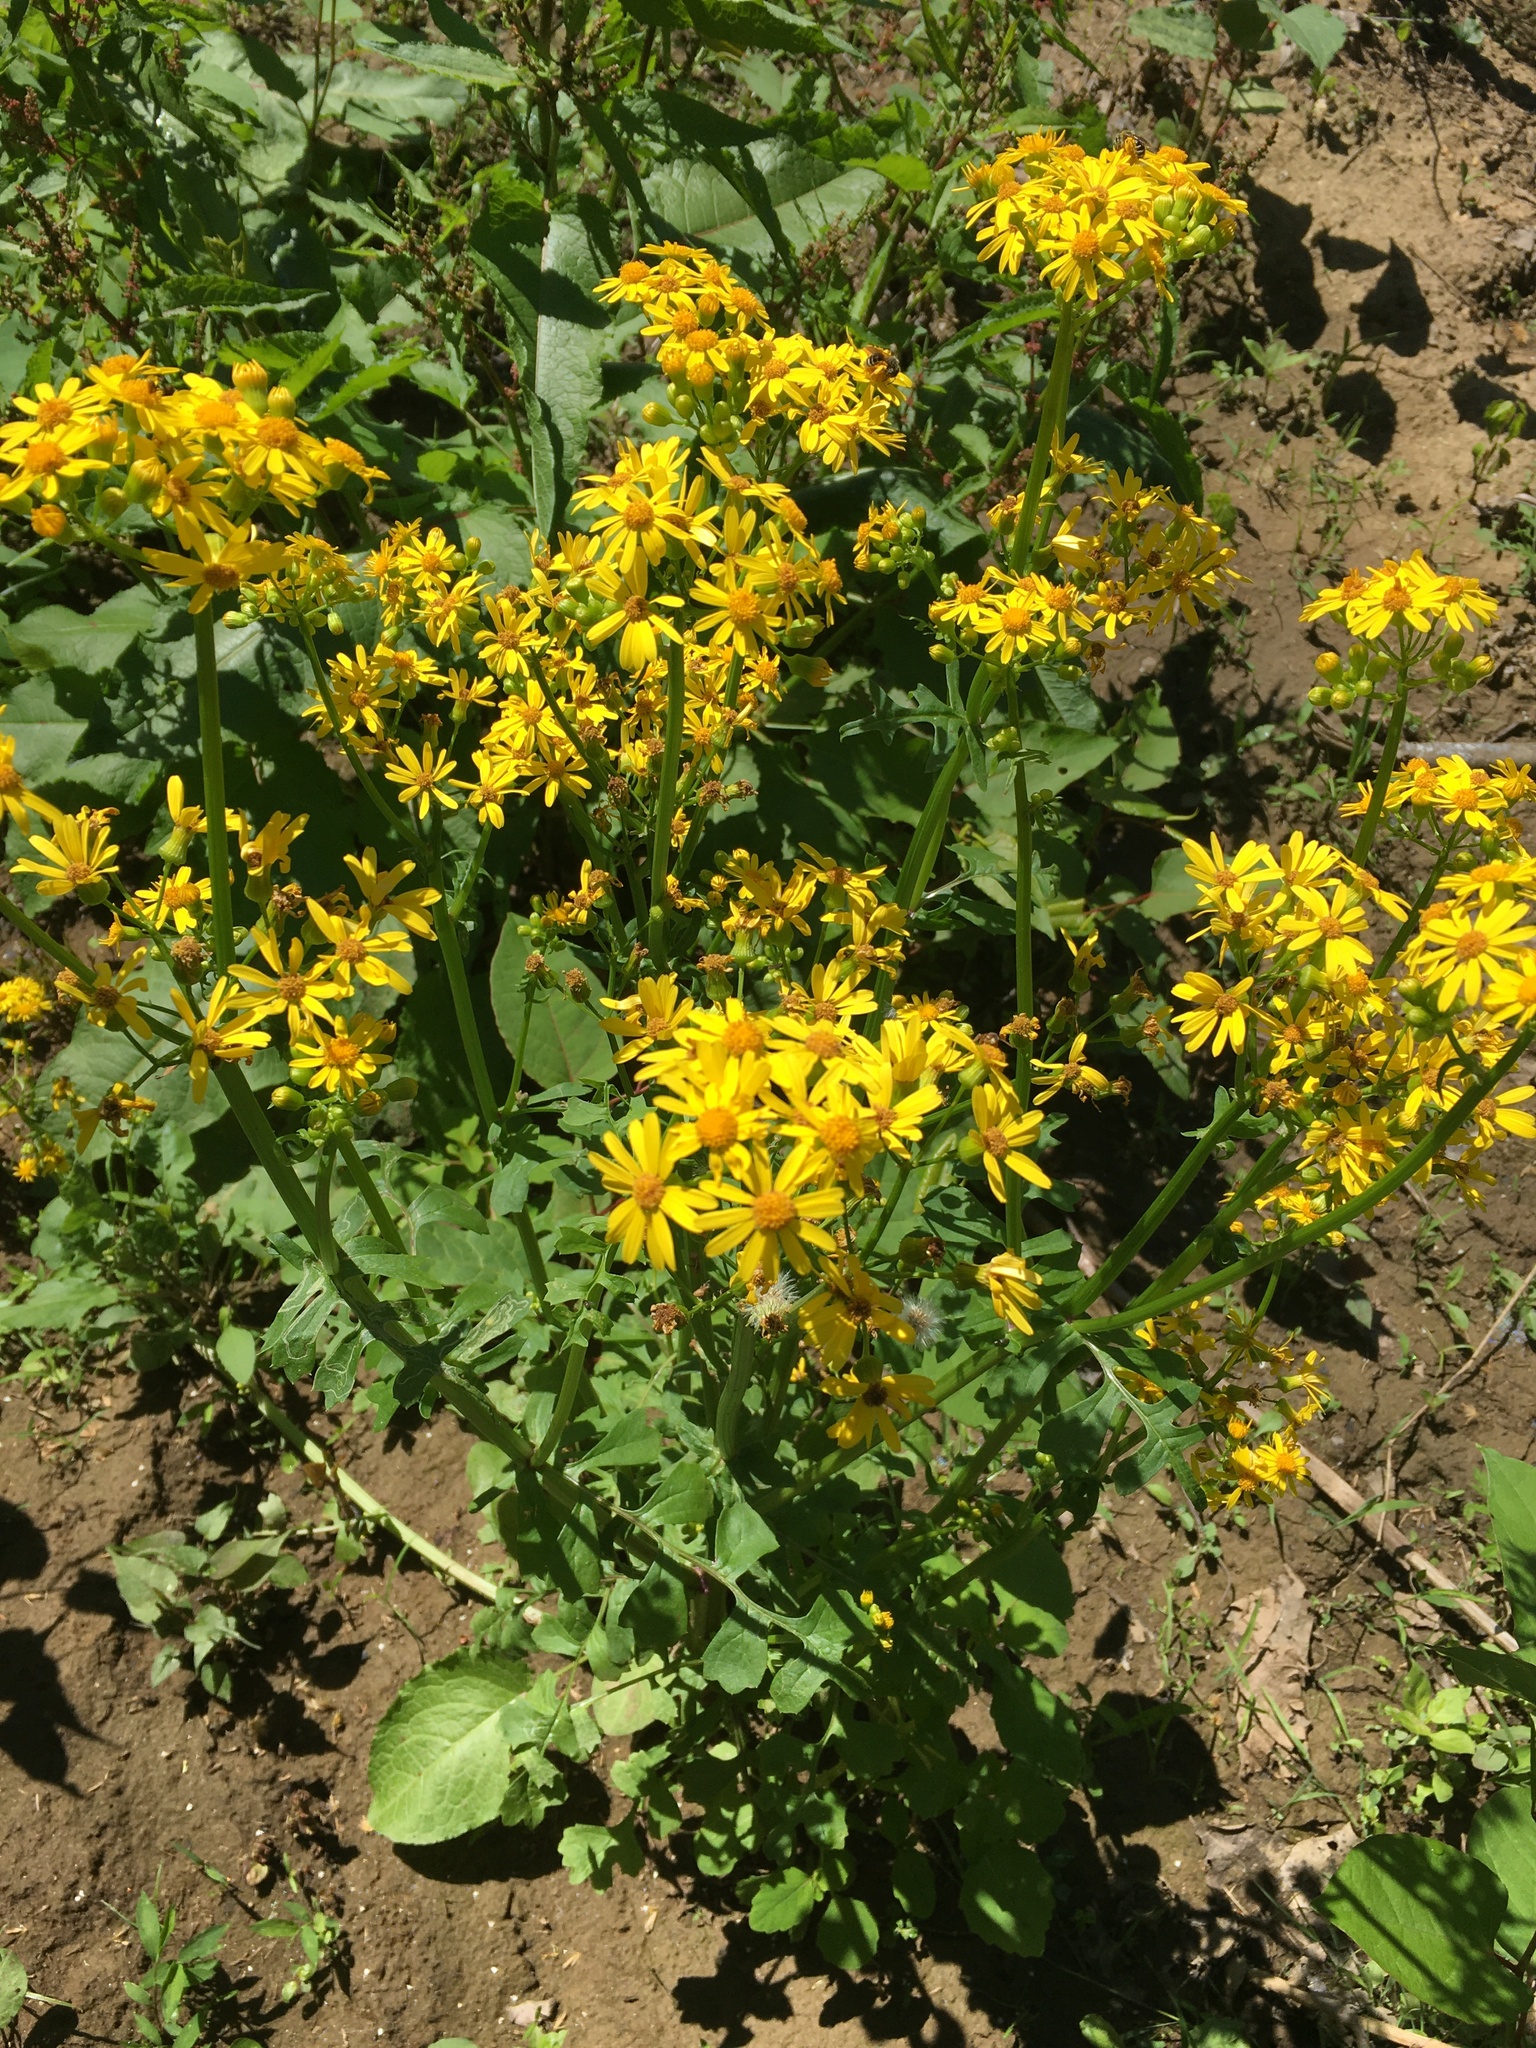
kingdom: Plantae
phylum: Tracheophyta
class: Magnoliopsida
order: Asterales
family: Asteraceae
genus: Packera
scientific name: Packera glabella
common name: Butterweed
